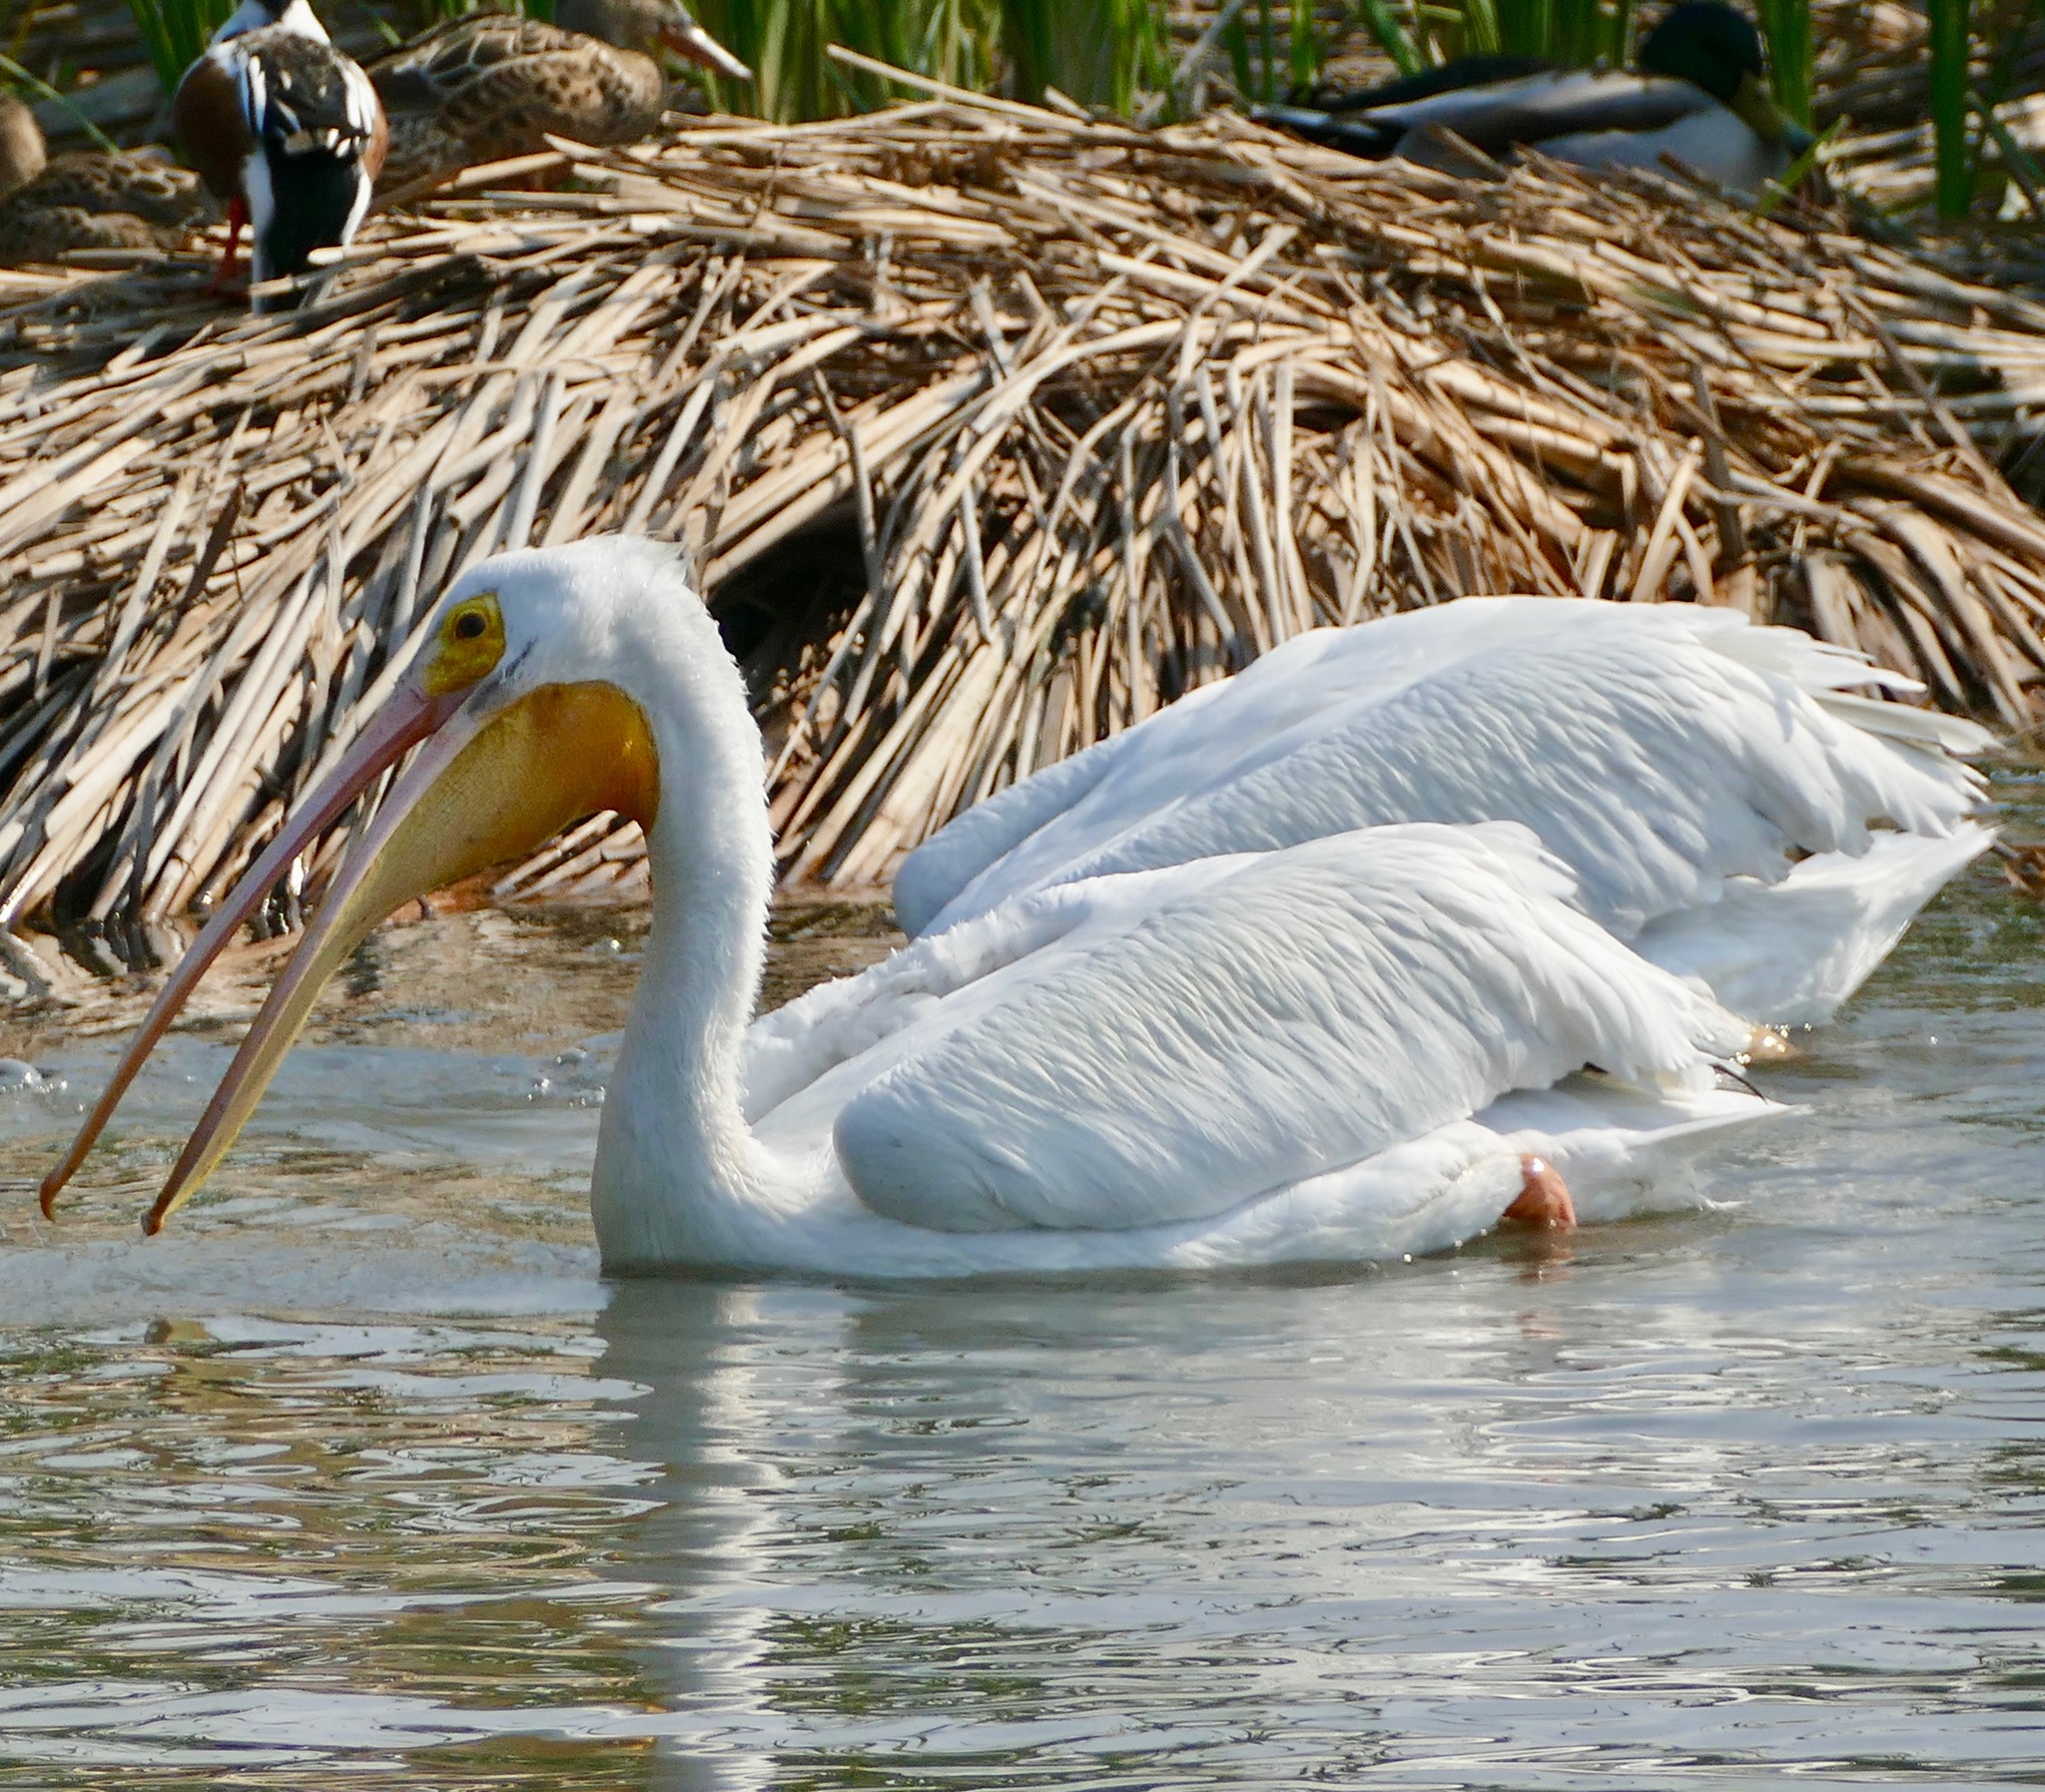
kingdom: Animalia
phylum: Chordata
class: Aves
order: Pelecaniformes
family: Pelecanidae
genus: Pelecanus
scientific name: Pelecanus erythrorhynchos
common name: American white pelican
